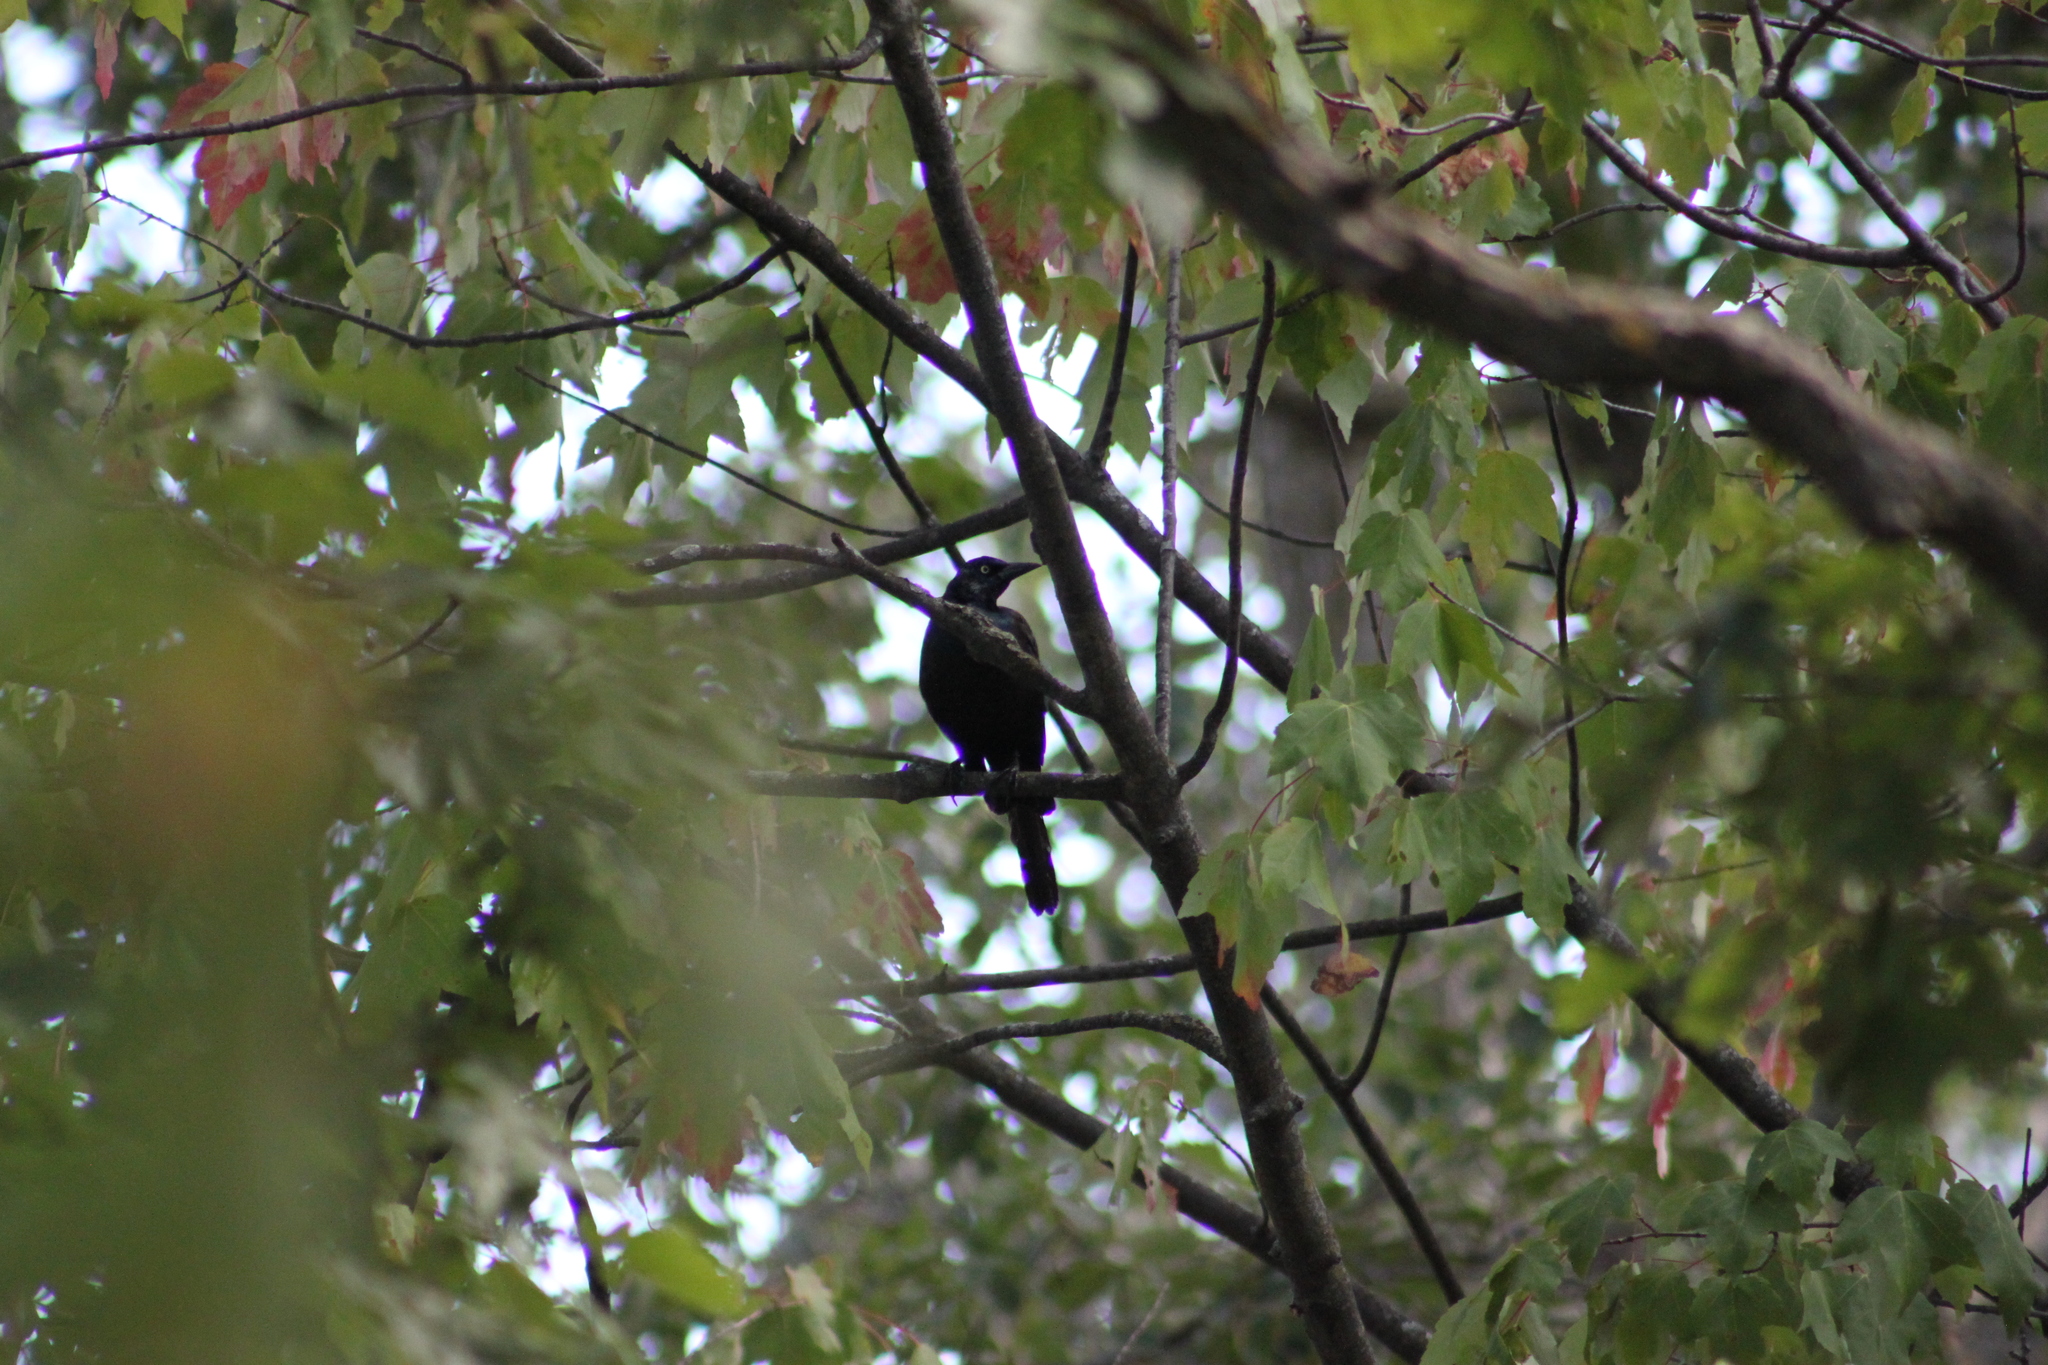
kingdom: Animalia
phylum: Chordata
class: Aves
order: Passeriformes
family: Icteridae
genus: Quiscalus
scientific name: Quiscalus quiscula
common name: Common grackle
